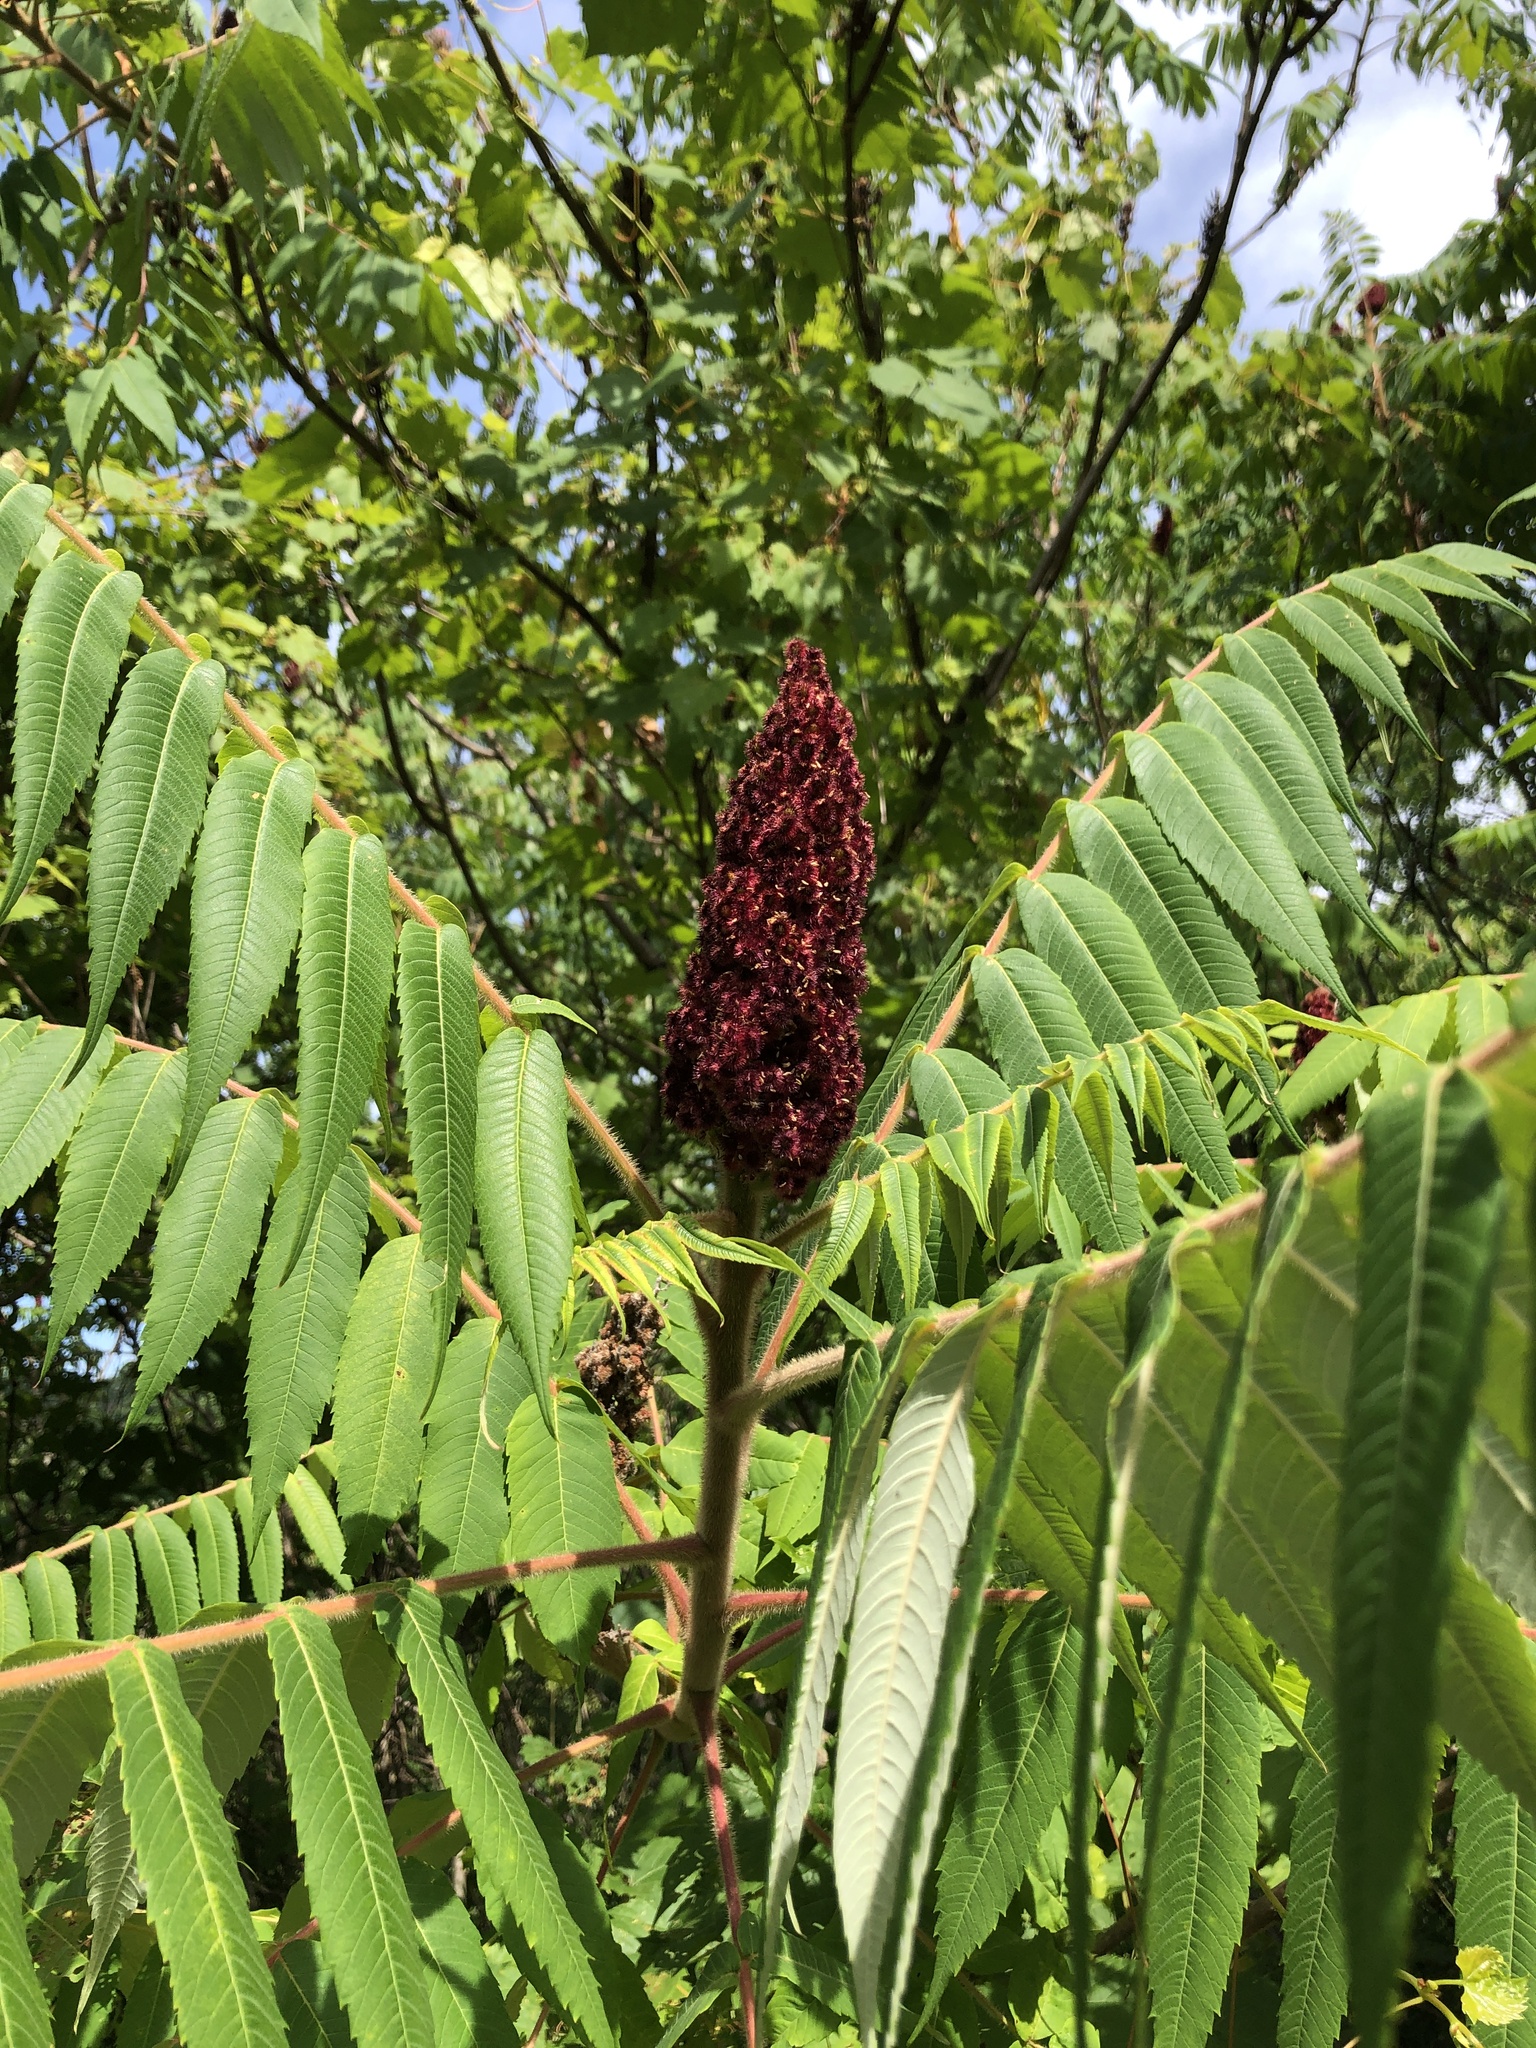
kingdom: Plantae
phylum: Tracheophyta
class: Magnoliopsida
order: Sapindales
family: Anacardiaceae
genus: Rhus
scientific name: Rhus typhina
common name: Staghorn sumac
